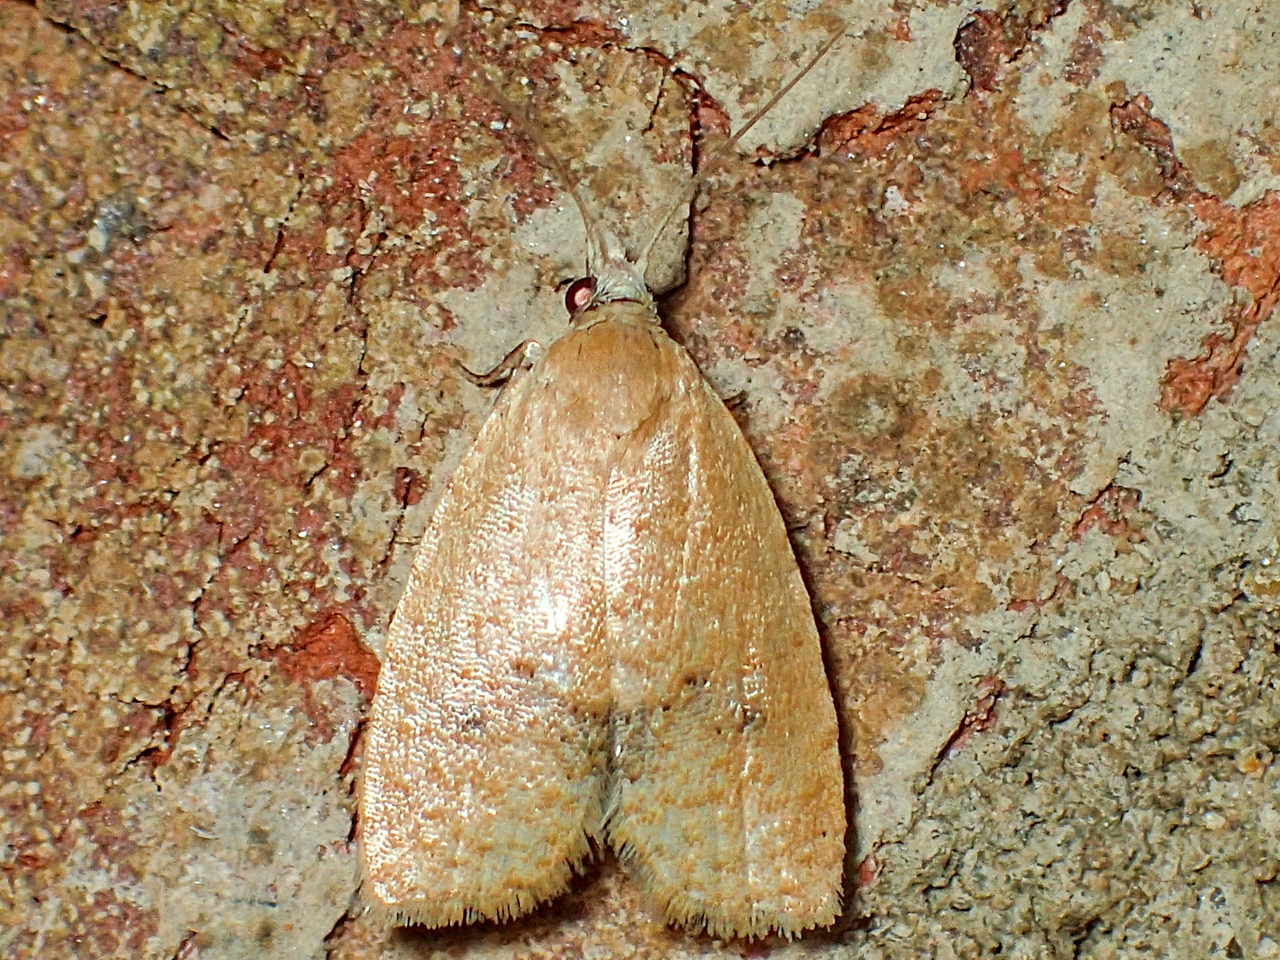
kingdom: Animalia
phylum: Arthropoda
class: Insecta
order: Lepidoptera
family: Tortricidae
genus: Sparganothoides
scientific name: Sparganothoides lentiginosana
